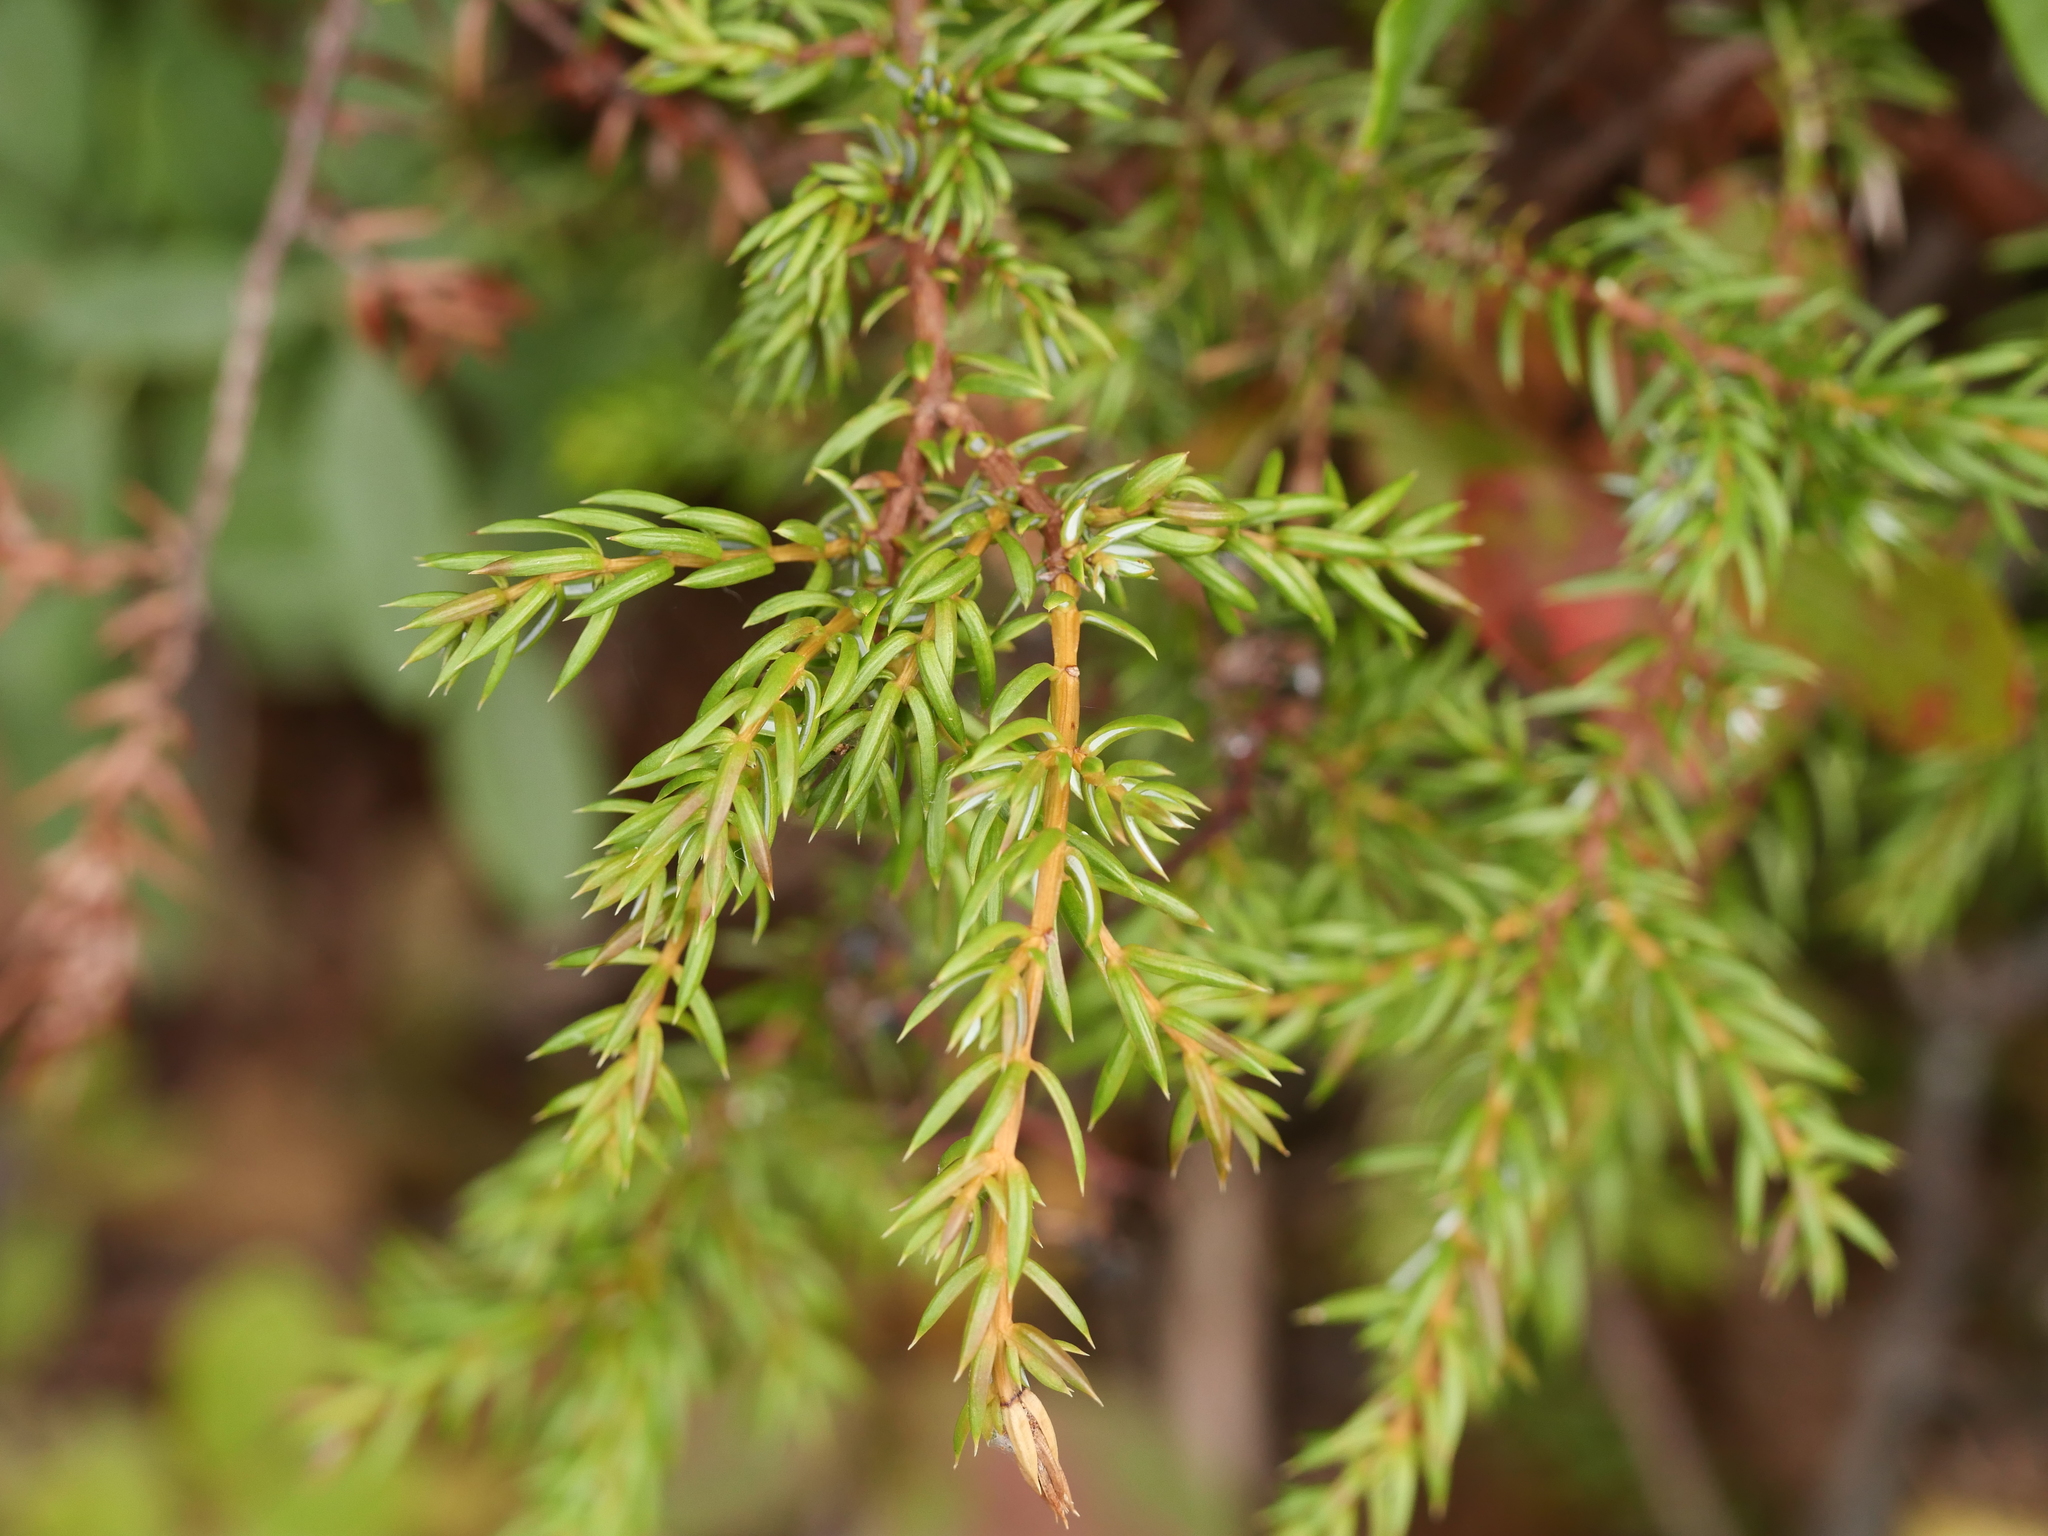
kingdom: Plantae
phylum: Tracheophyta
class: Pinopsida
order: Pinales
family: Cupressaceae
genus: Juniperus
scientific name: Juniperus communis
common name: Common juniper
